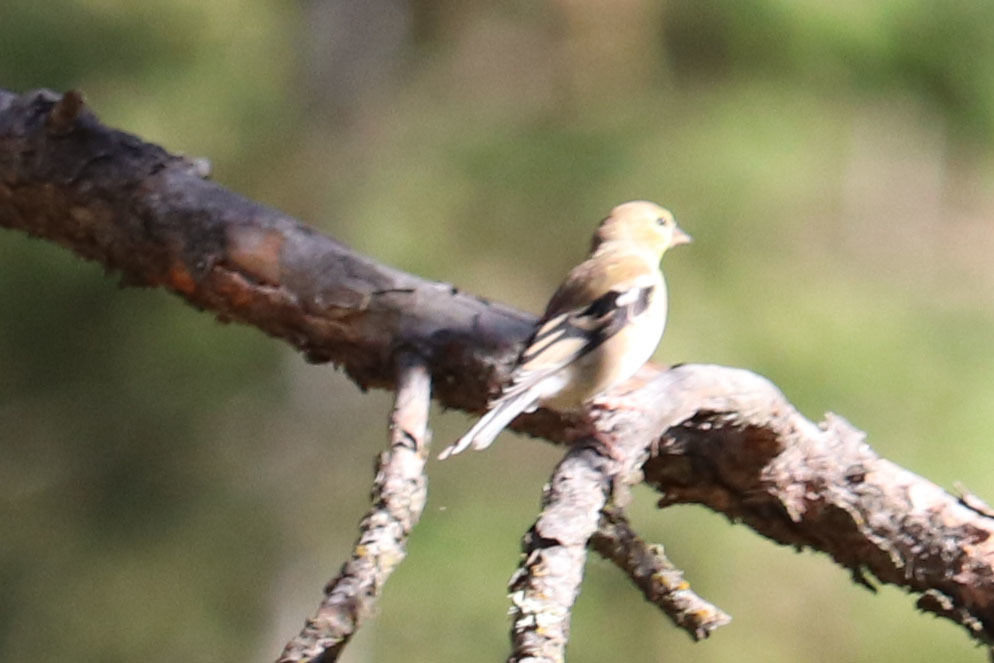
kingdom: Animalia
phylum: Chordata
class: Aves
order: Passeriformes
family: Fringillidae
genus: Spinus
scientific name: Spinus tristis
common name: American goldfinch
